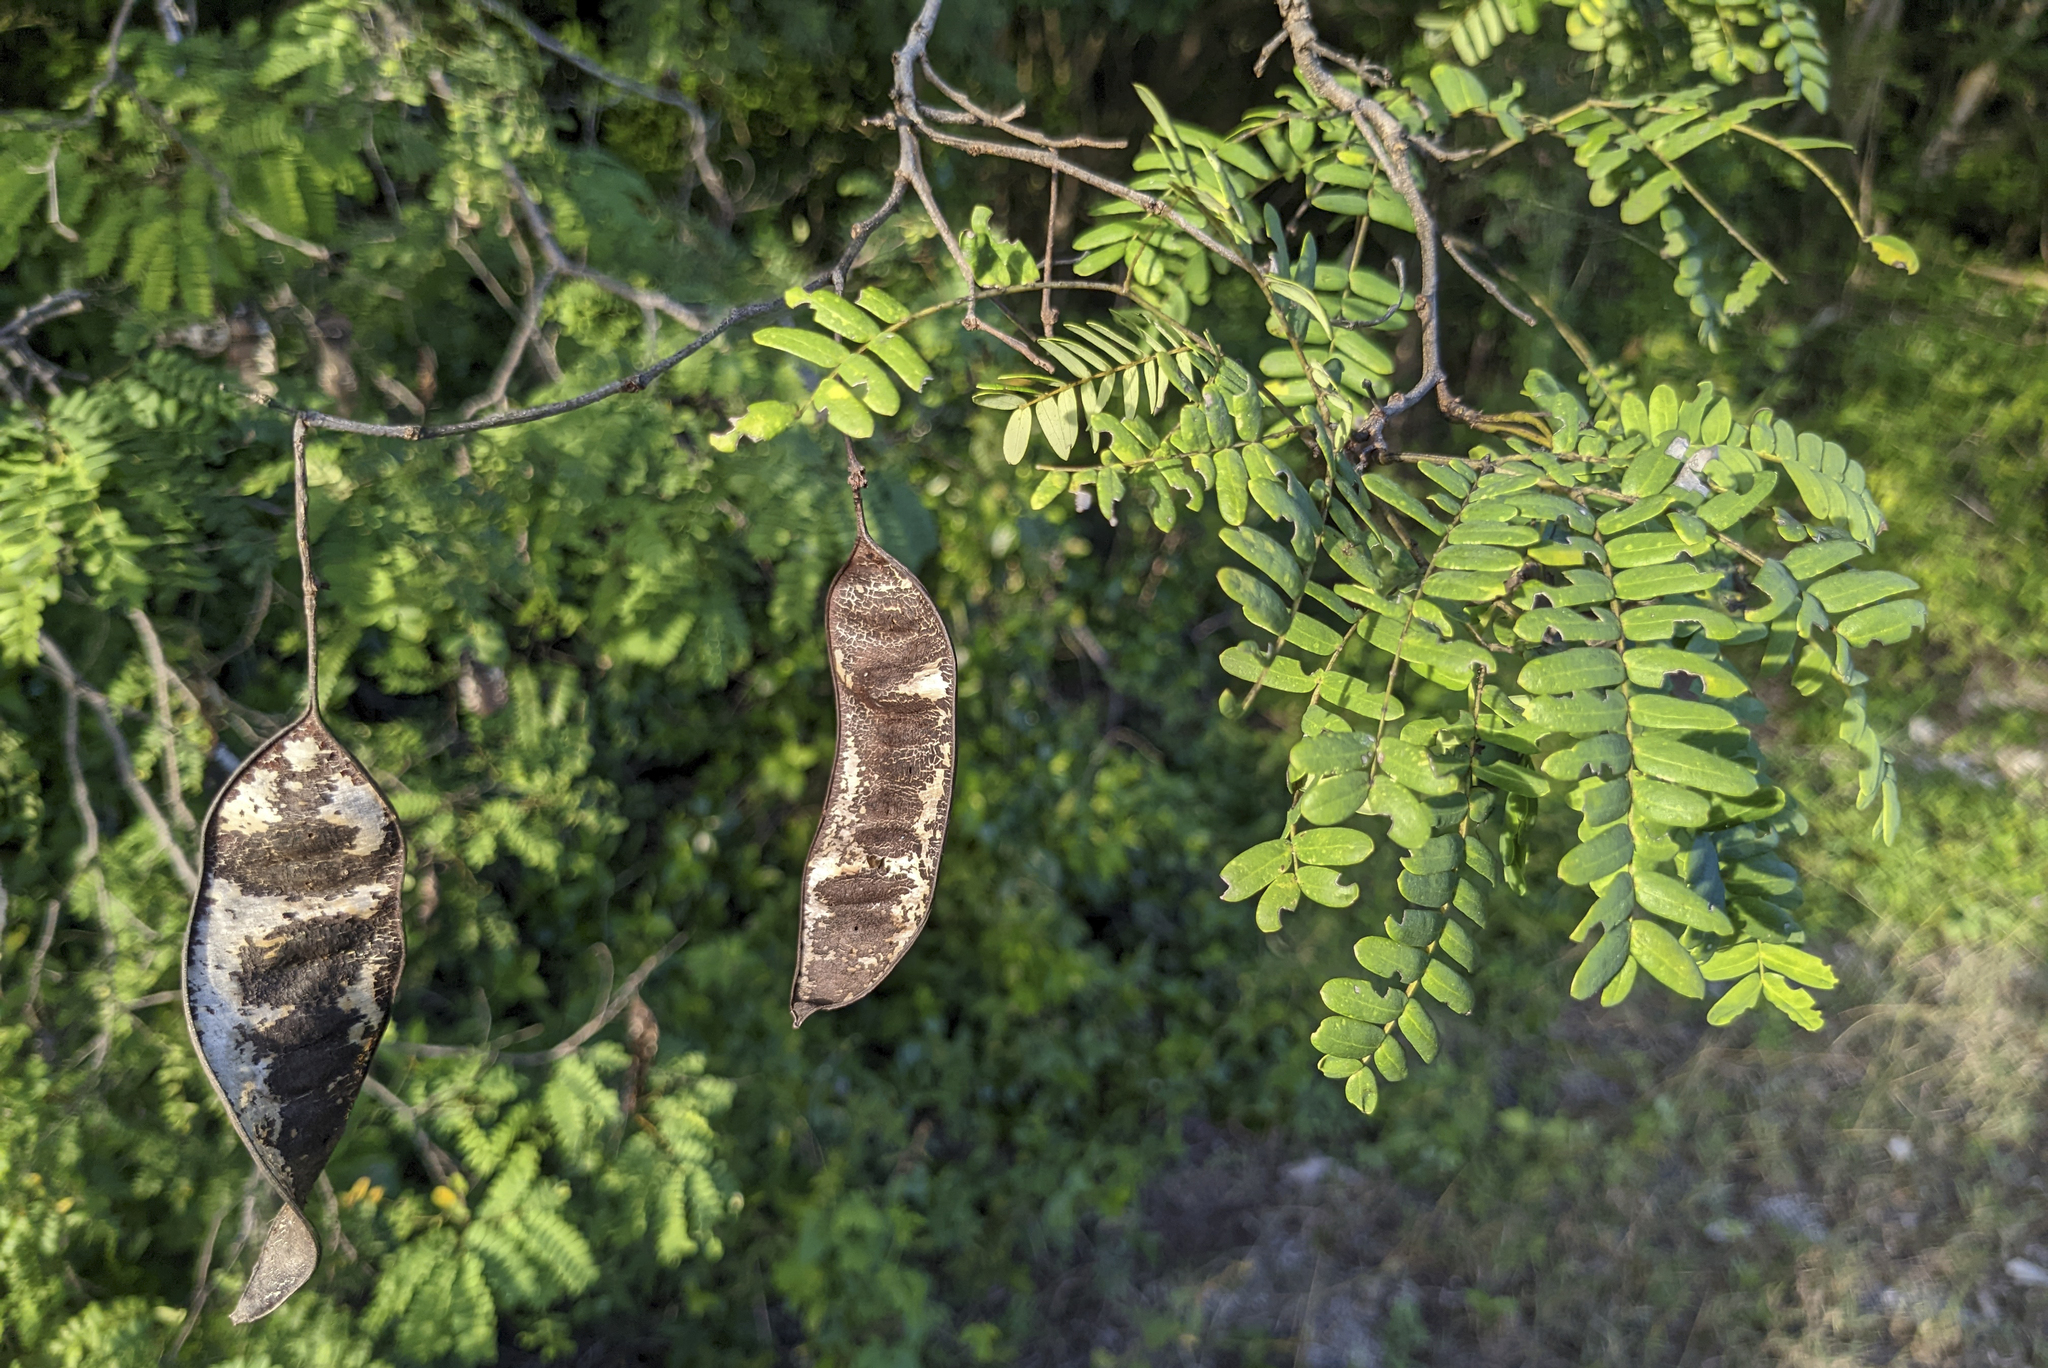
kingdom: Plantae
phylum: Tracheophyta
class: Magnoliopsida
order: Fabales
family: Fabaceae
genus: Lysiloma
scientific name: Lysiloma latisiliquum
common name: Wild tamarind
